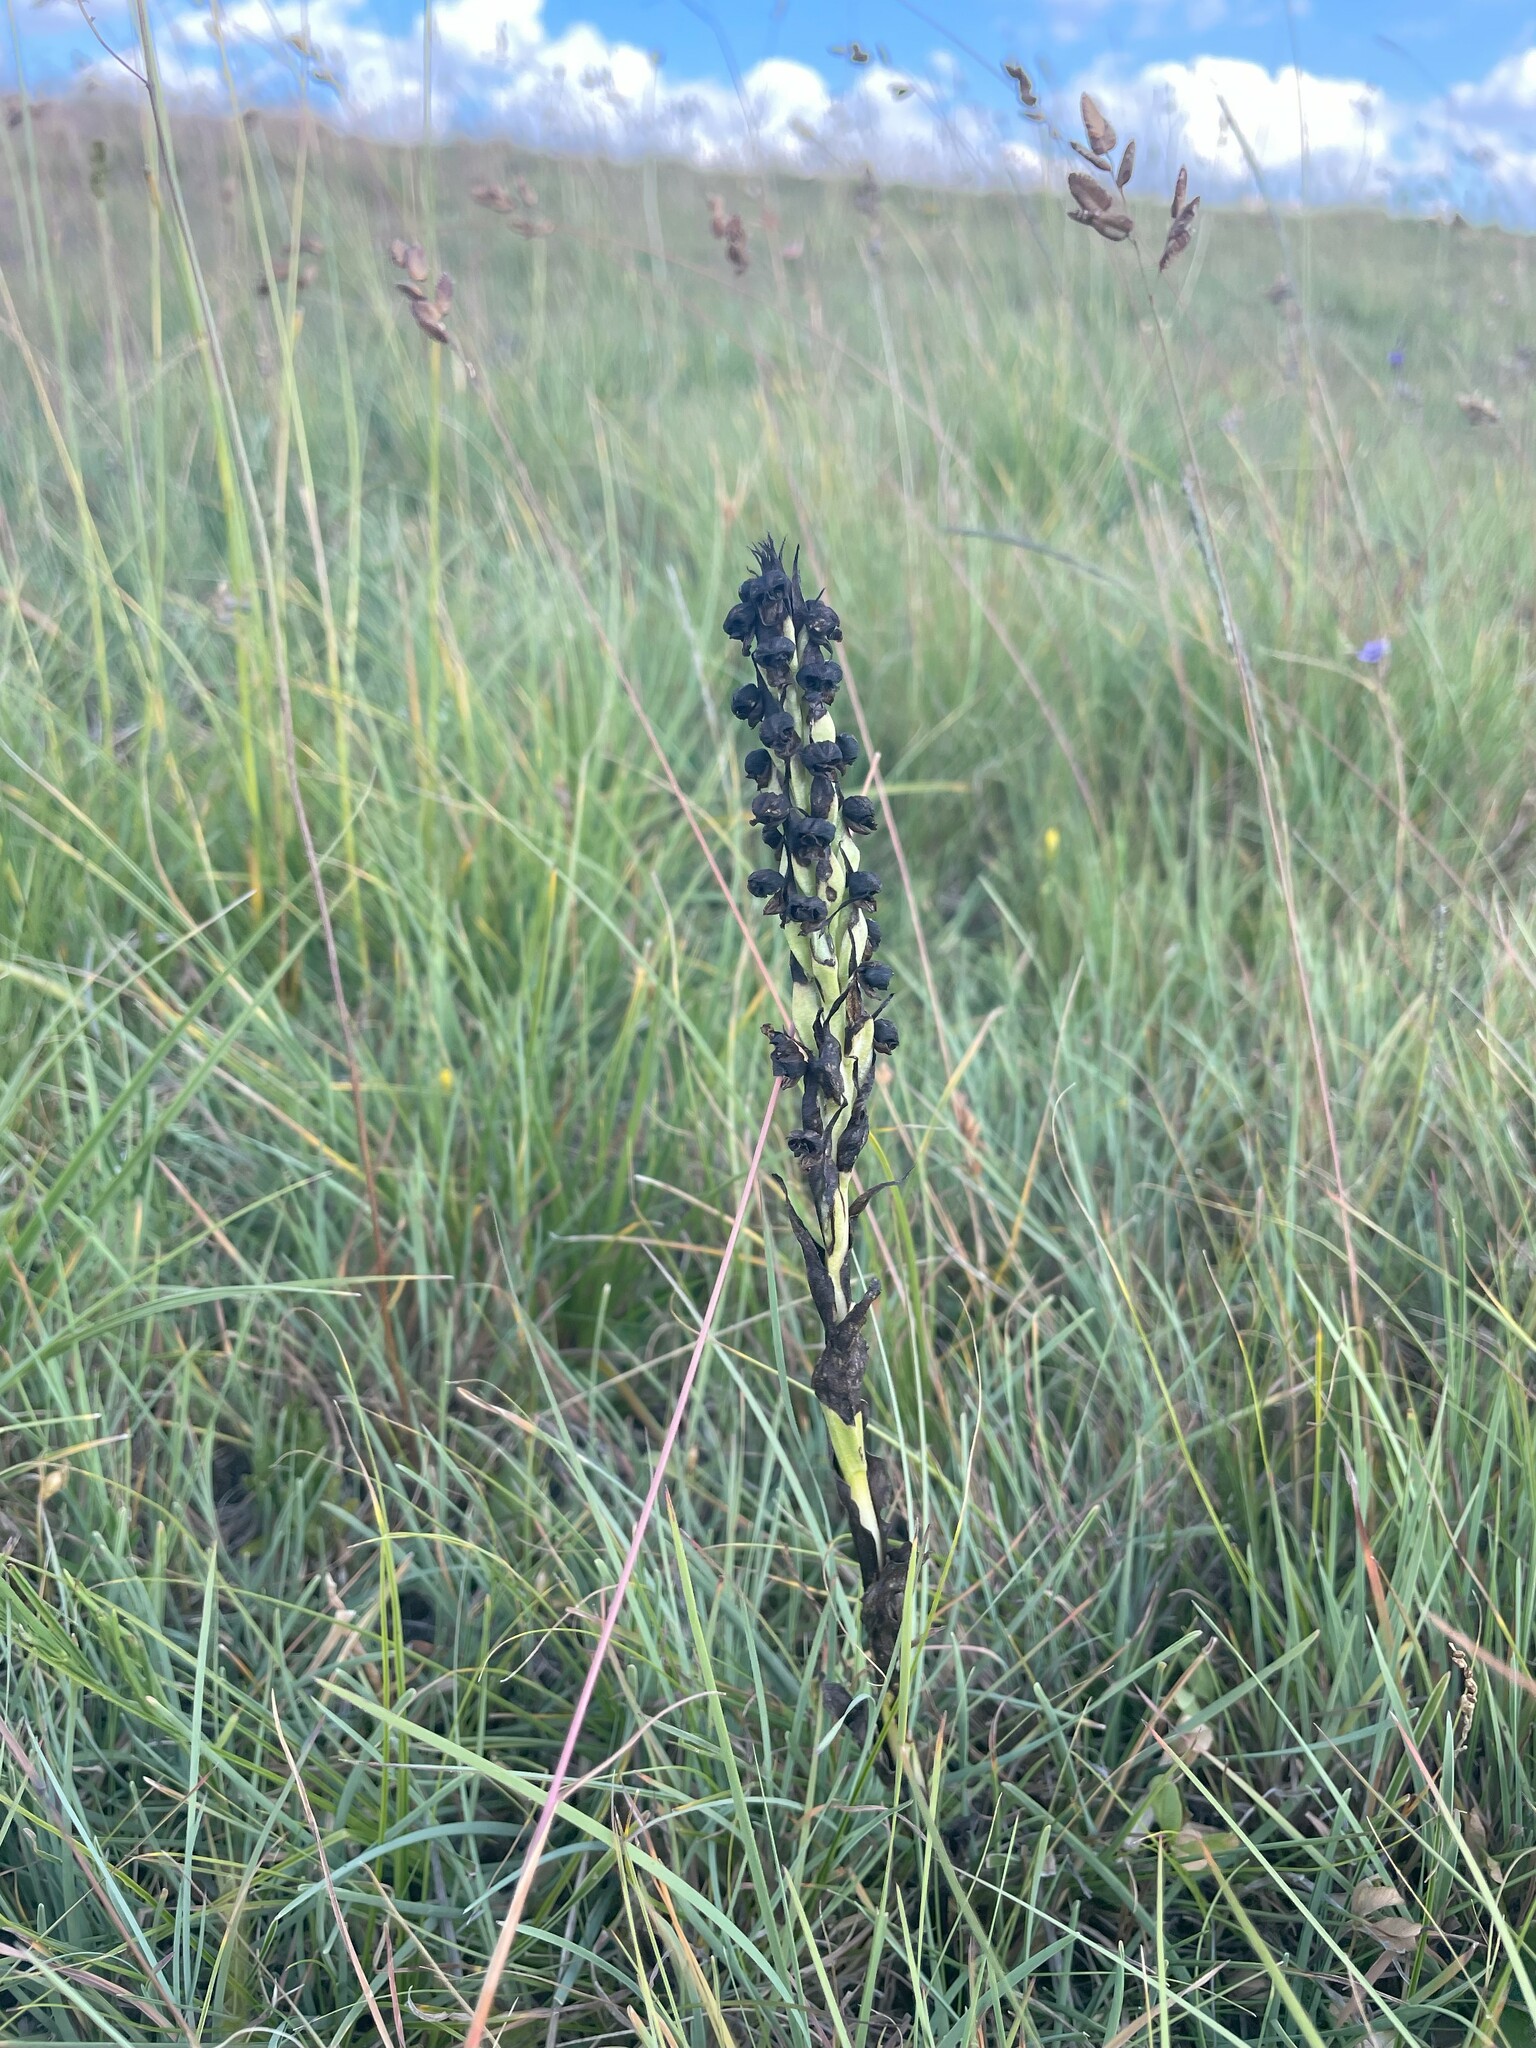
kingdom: Plantae
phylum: Tracheophyta
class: Liliopsida
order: Asparagales
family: Orchidaceae
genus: Corycium
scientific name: Corycium nigrescens
